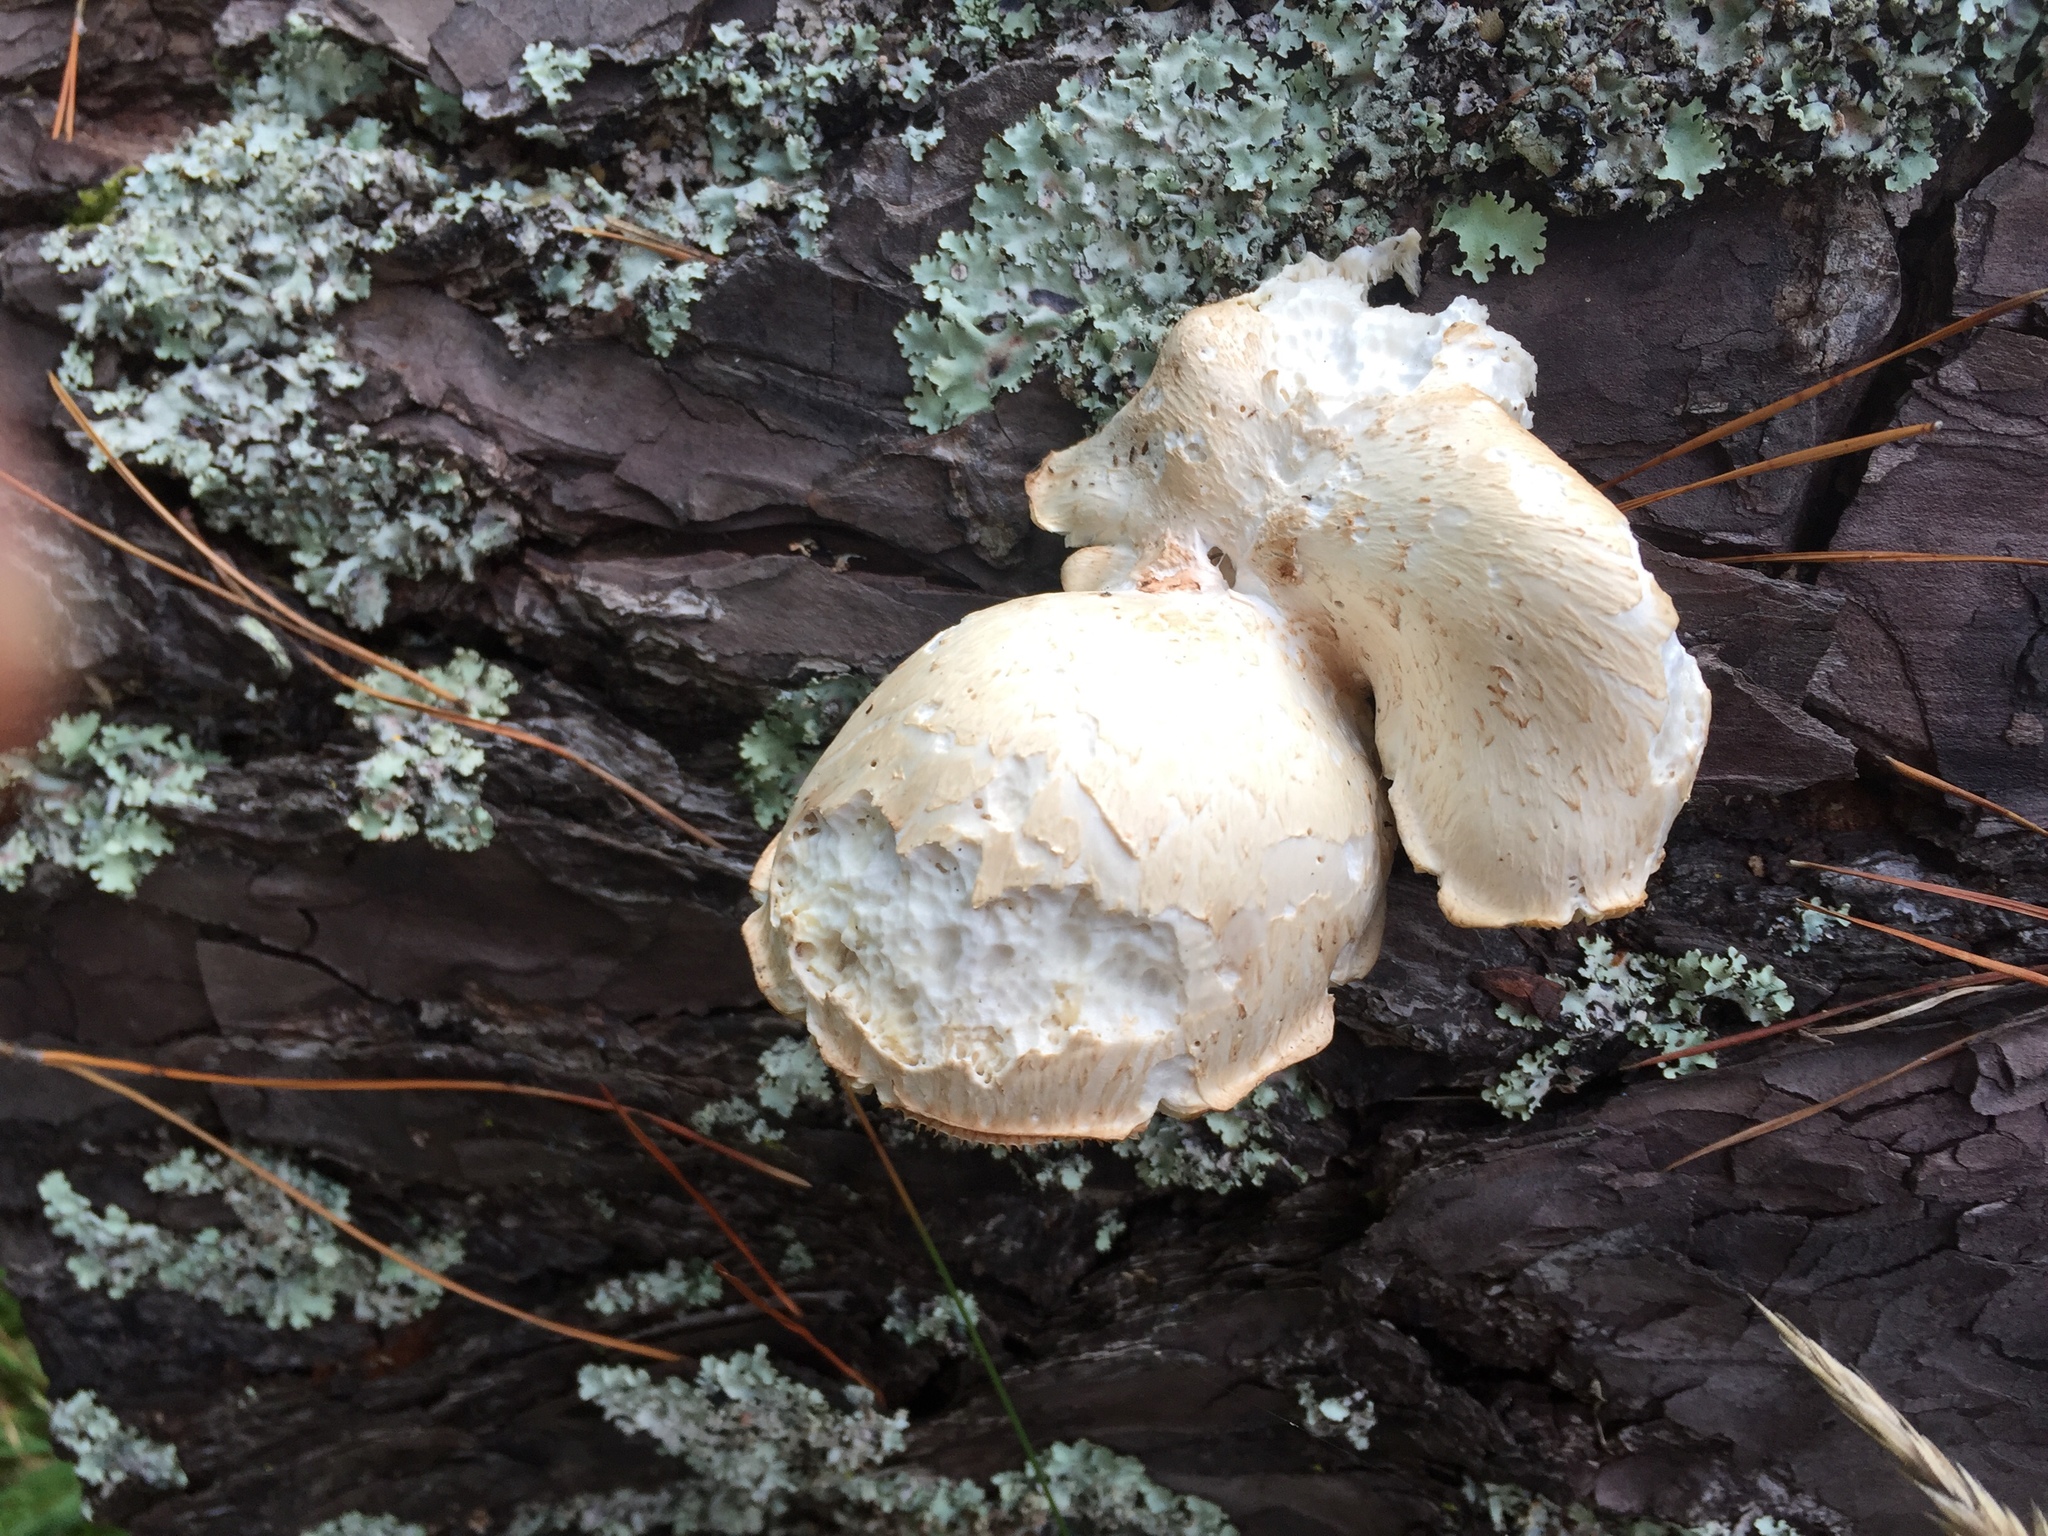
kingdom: Fungi
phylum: Basidiomycota
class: Agaricomycetes
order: Gloeophyllales
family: Gloeophyllaceae
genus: Neolentinus
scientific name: Neolentinus lepideus
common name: Scaly sawgill
